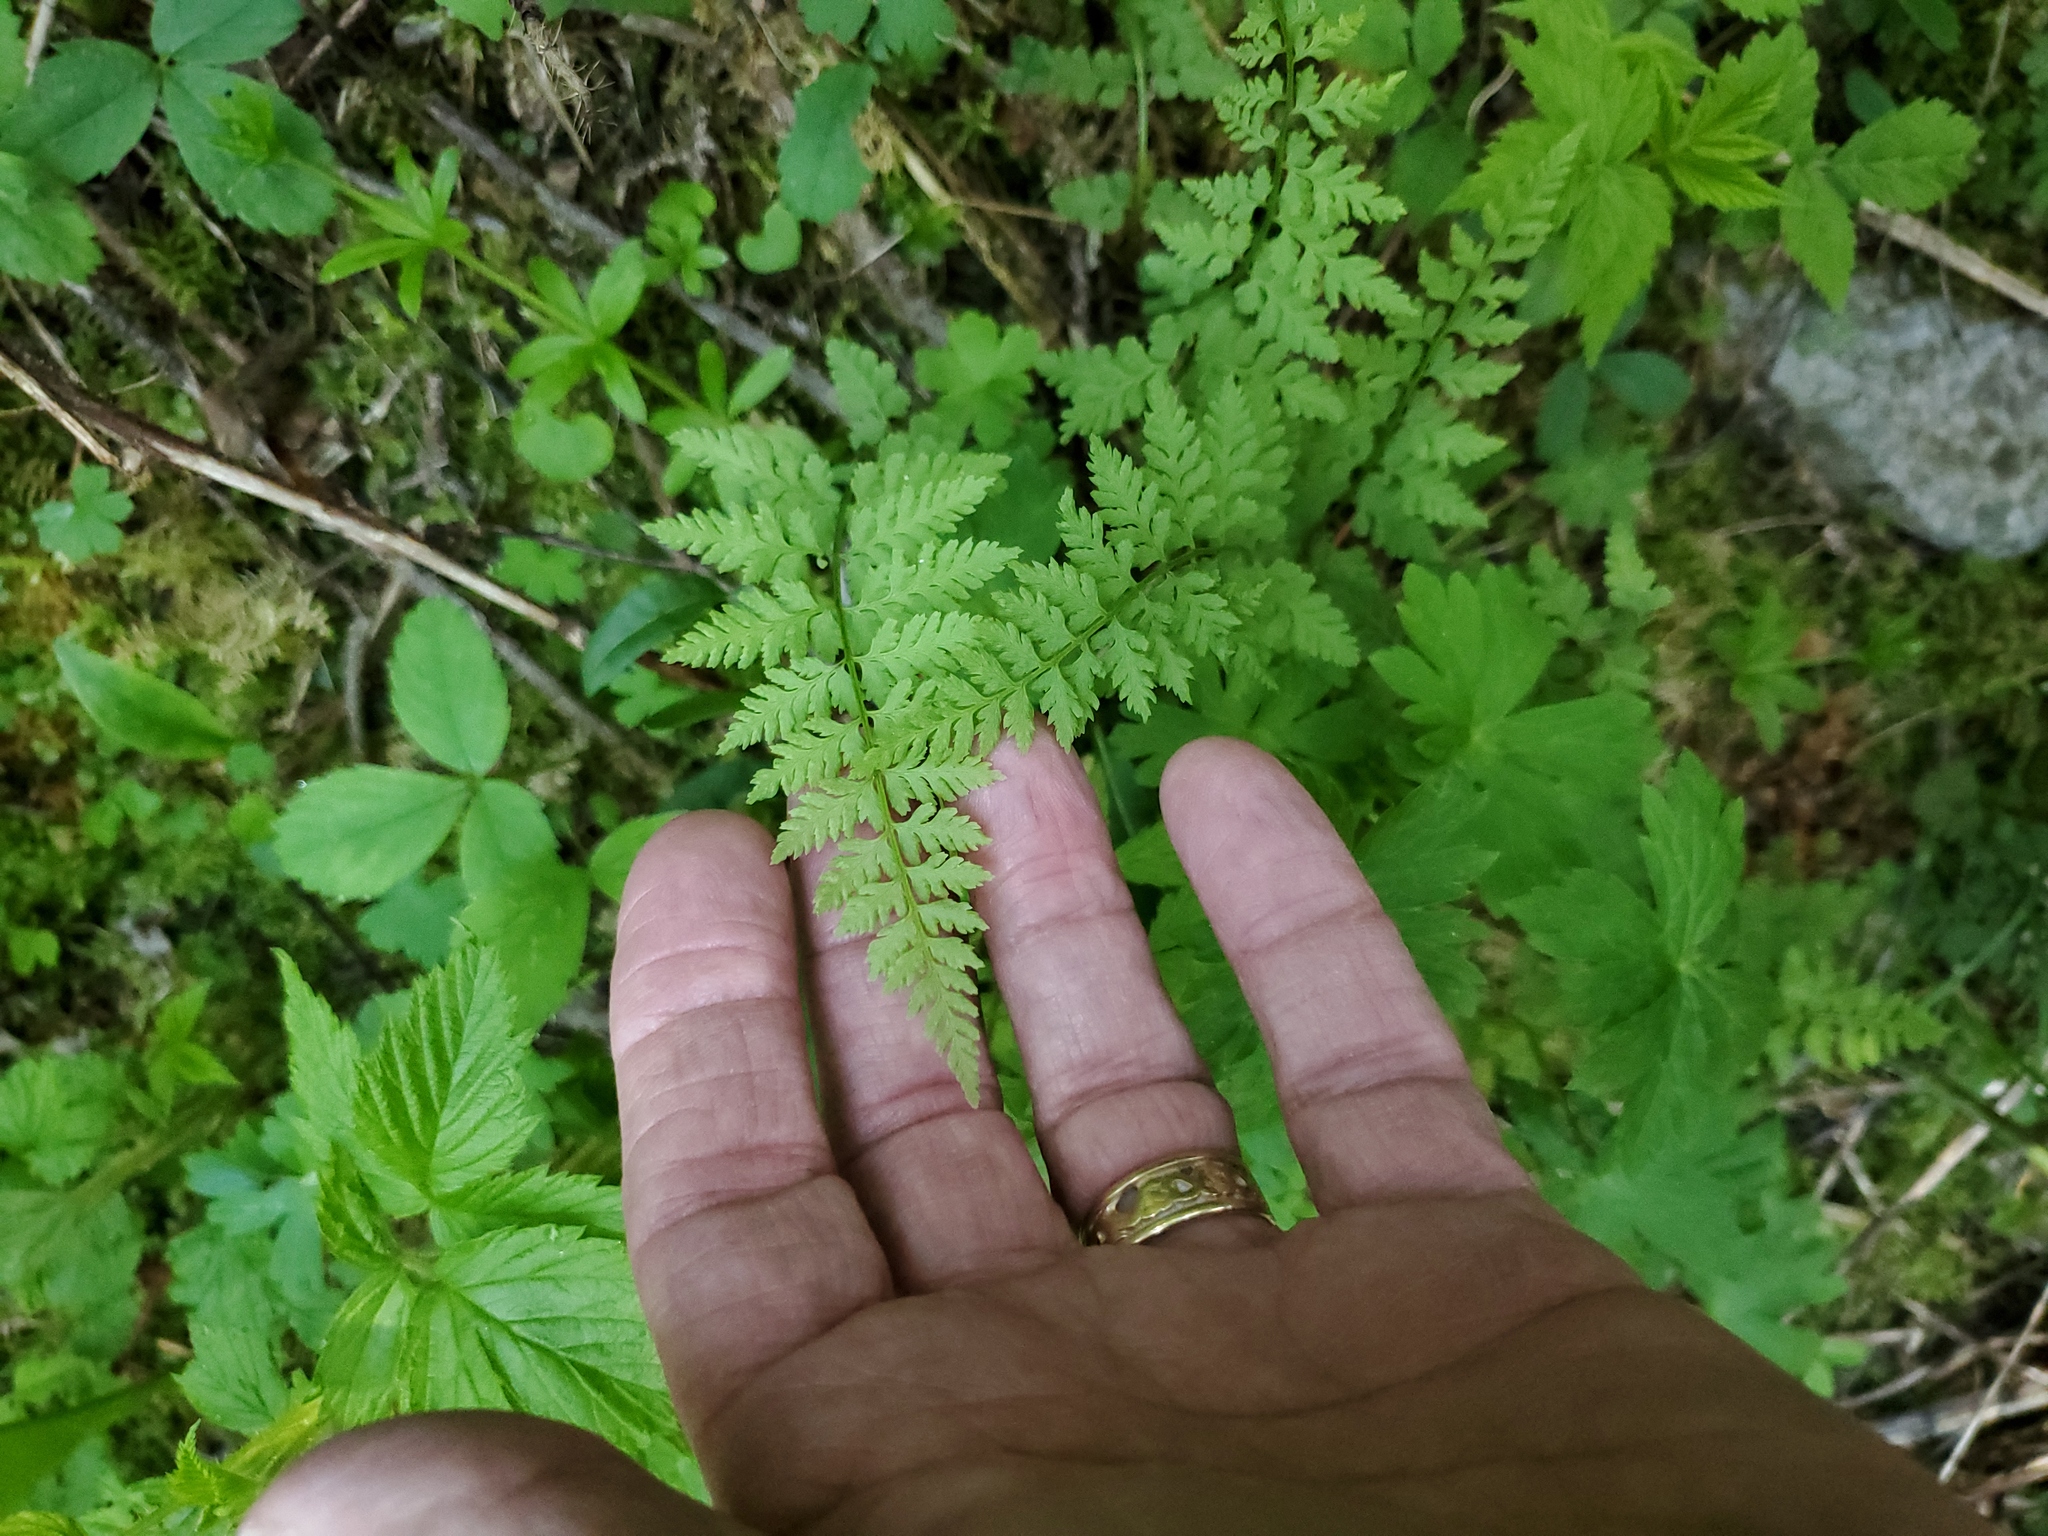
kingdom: Plantae
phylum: Tracheophyta
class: Polypodiopsida
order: Polypodiales
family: Cystopteridaceae
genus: Cystopteris
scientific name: Cystopteris fragilis
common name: Brittle bladder fern
